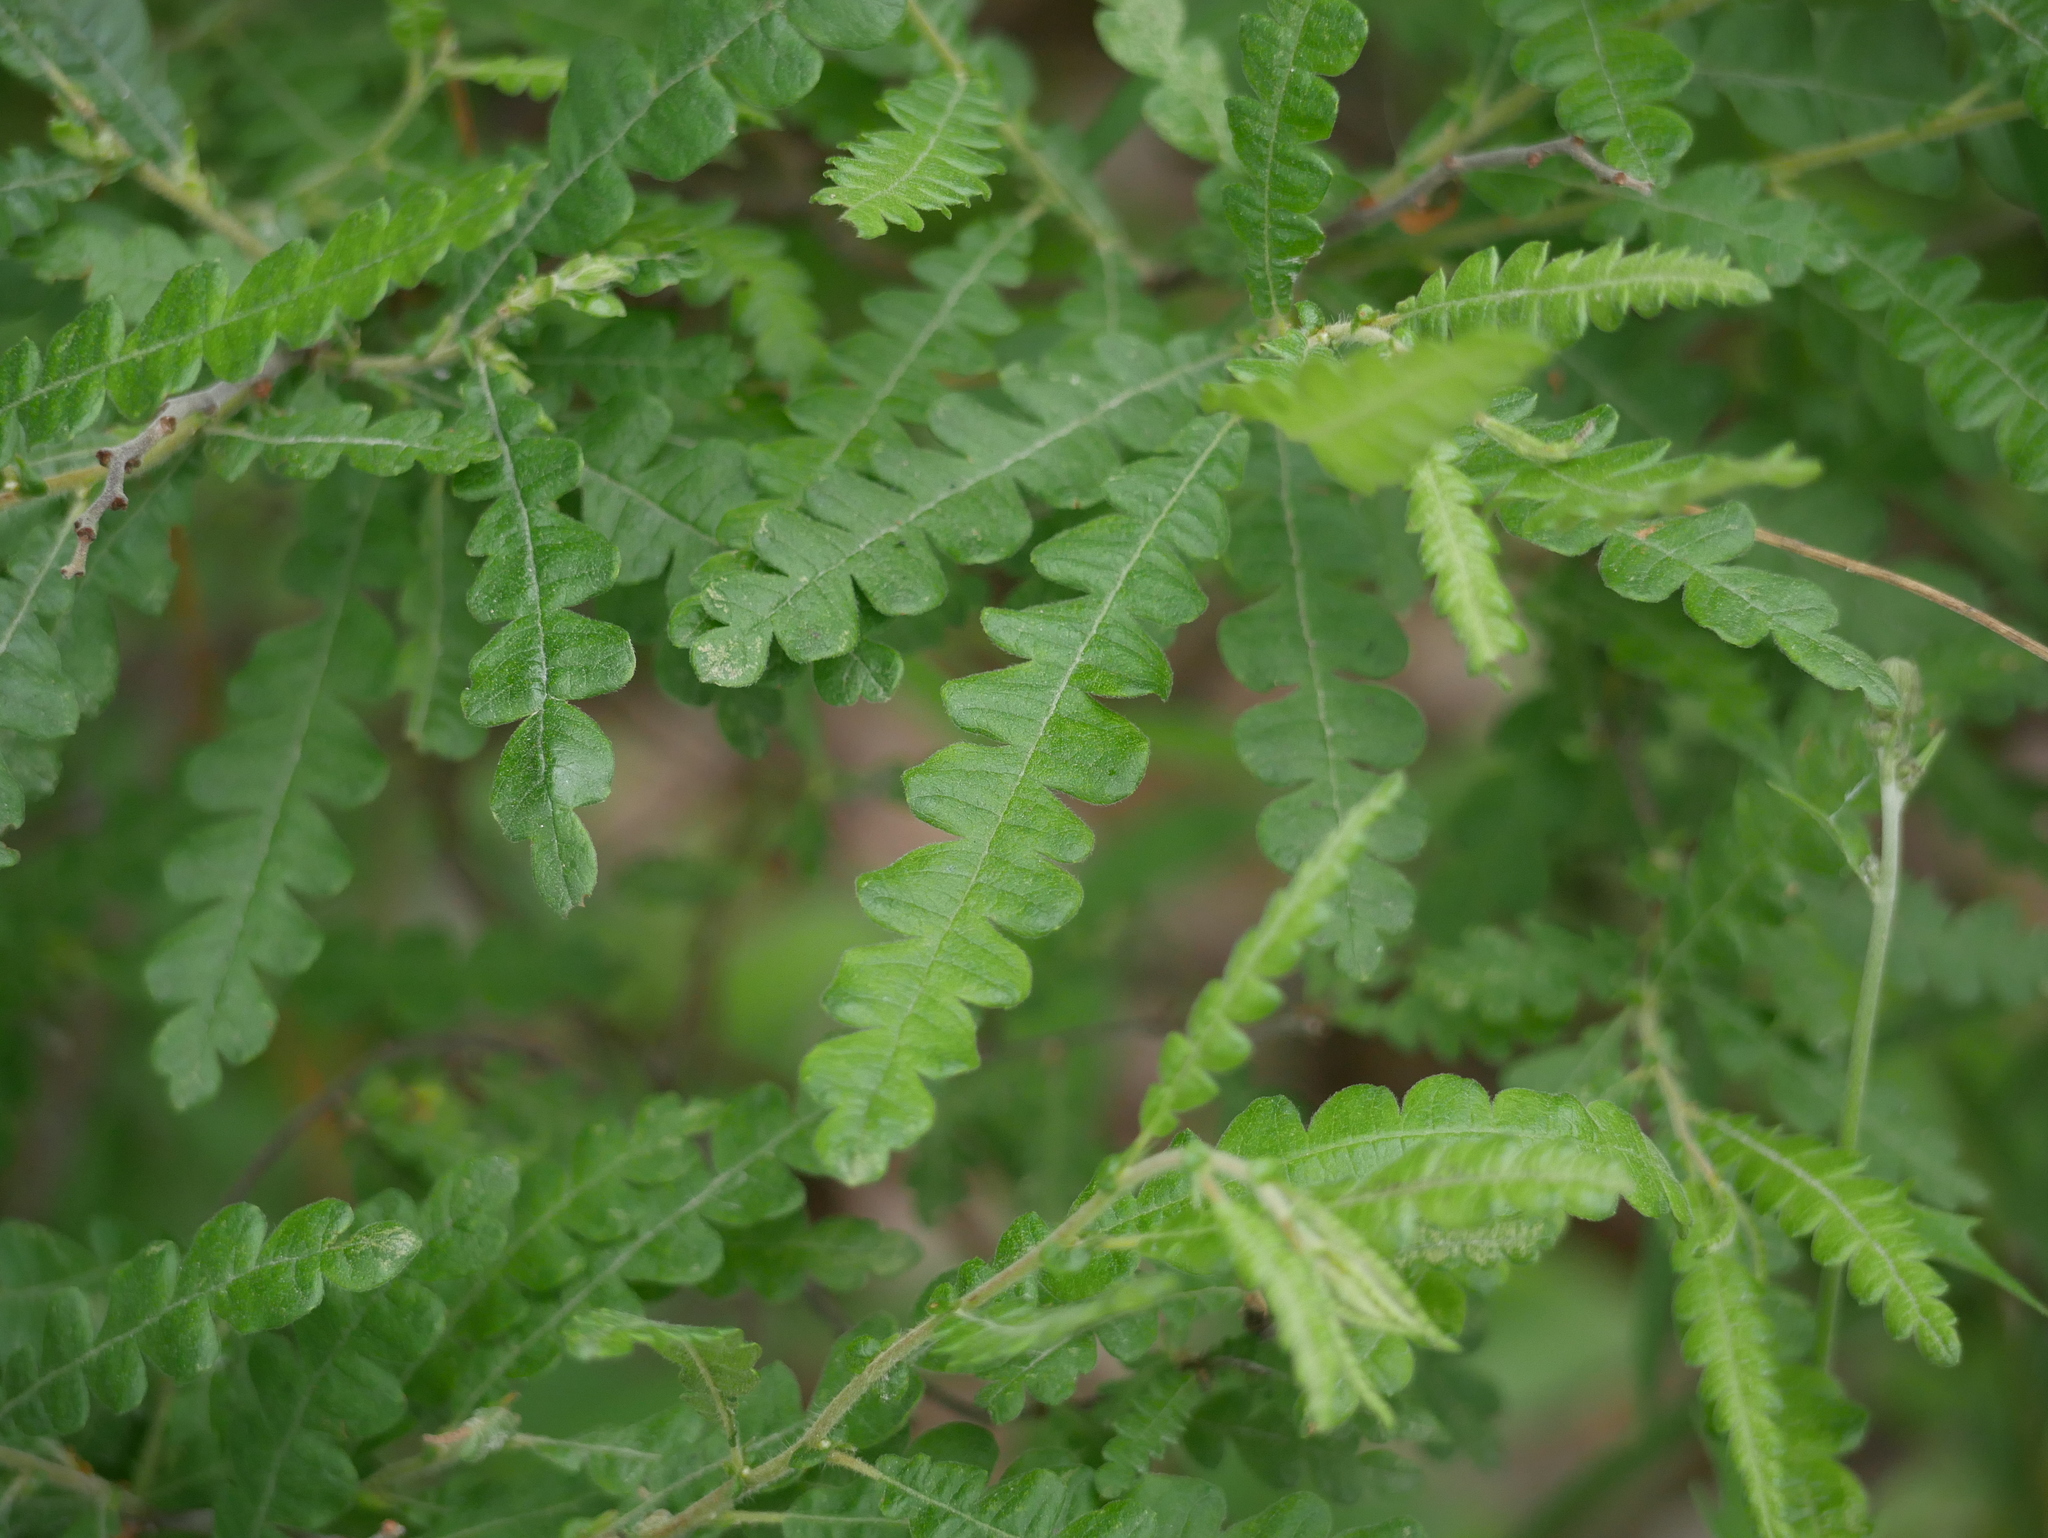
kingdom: Plantae
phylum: Tracheophyta
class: Magnoliopsida
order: Fagales
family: Myricaceae
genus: Comptonia
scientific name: Comptonia peregrina
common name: Sweet-fern
